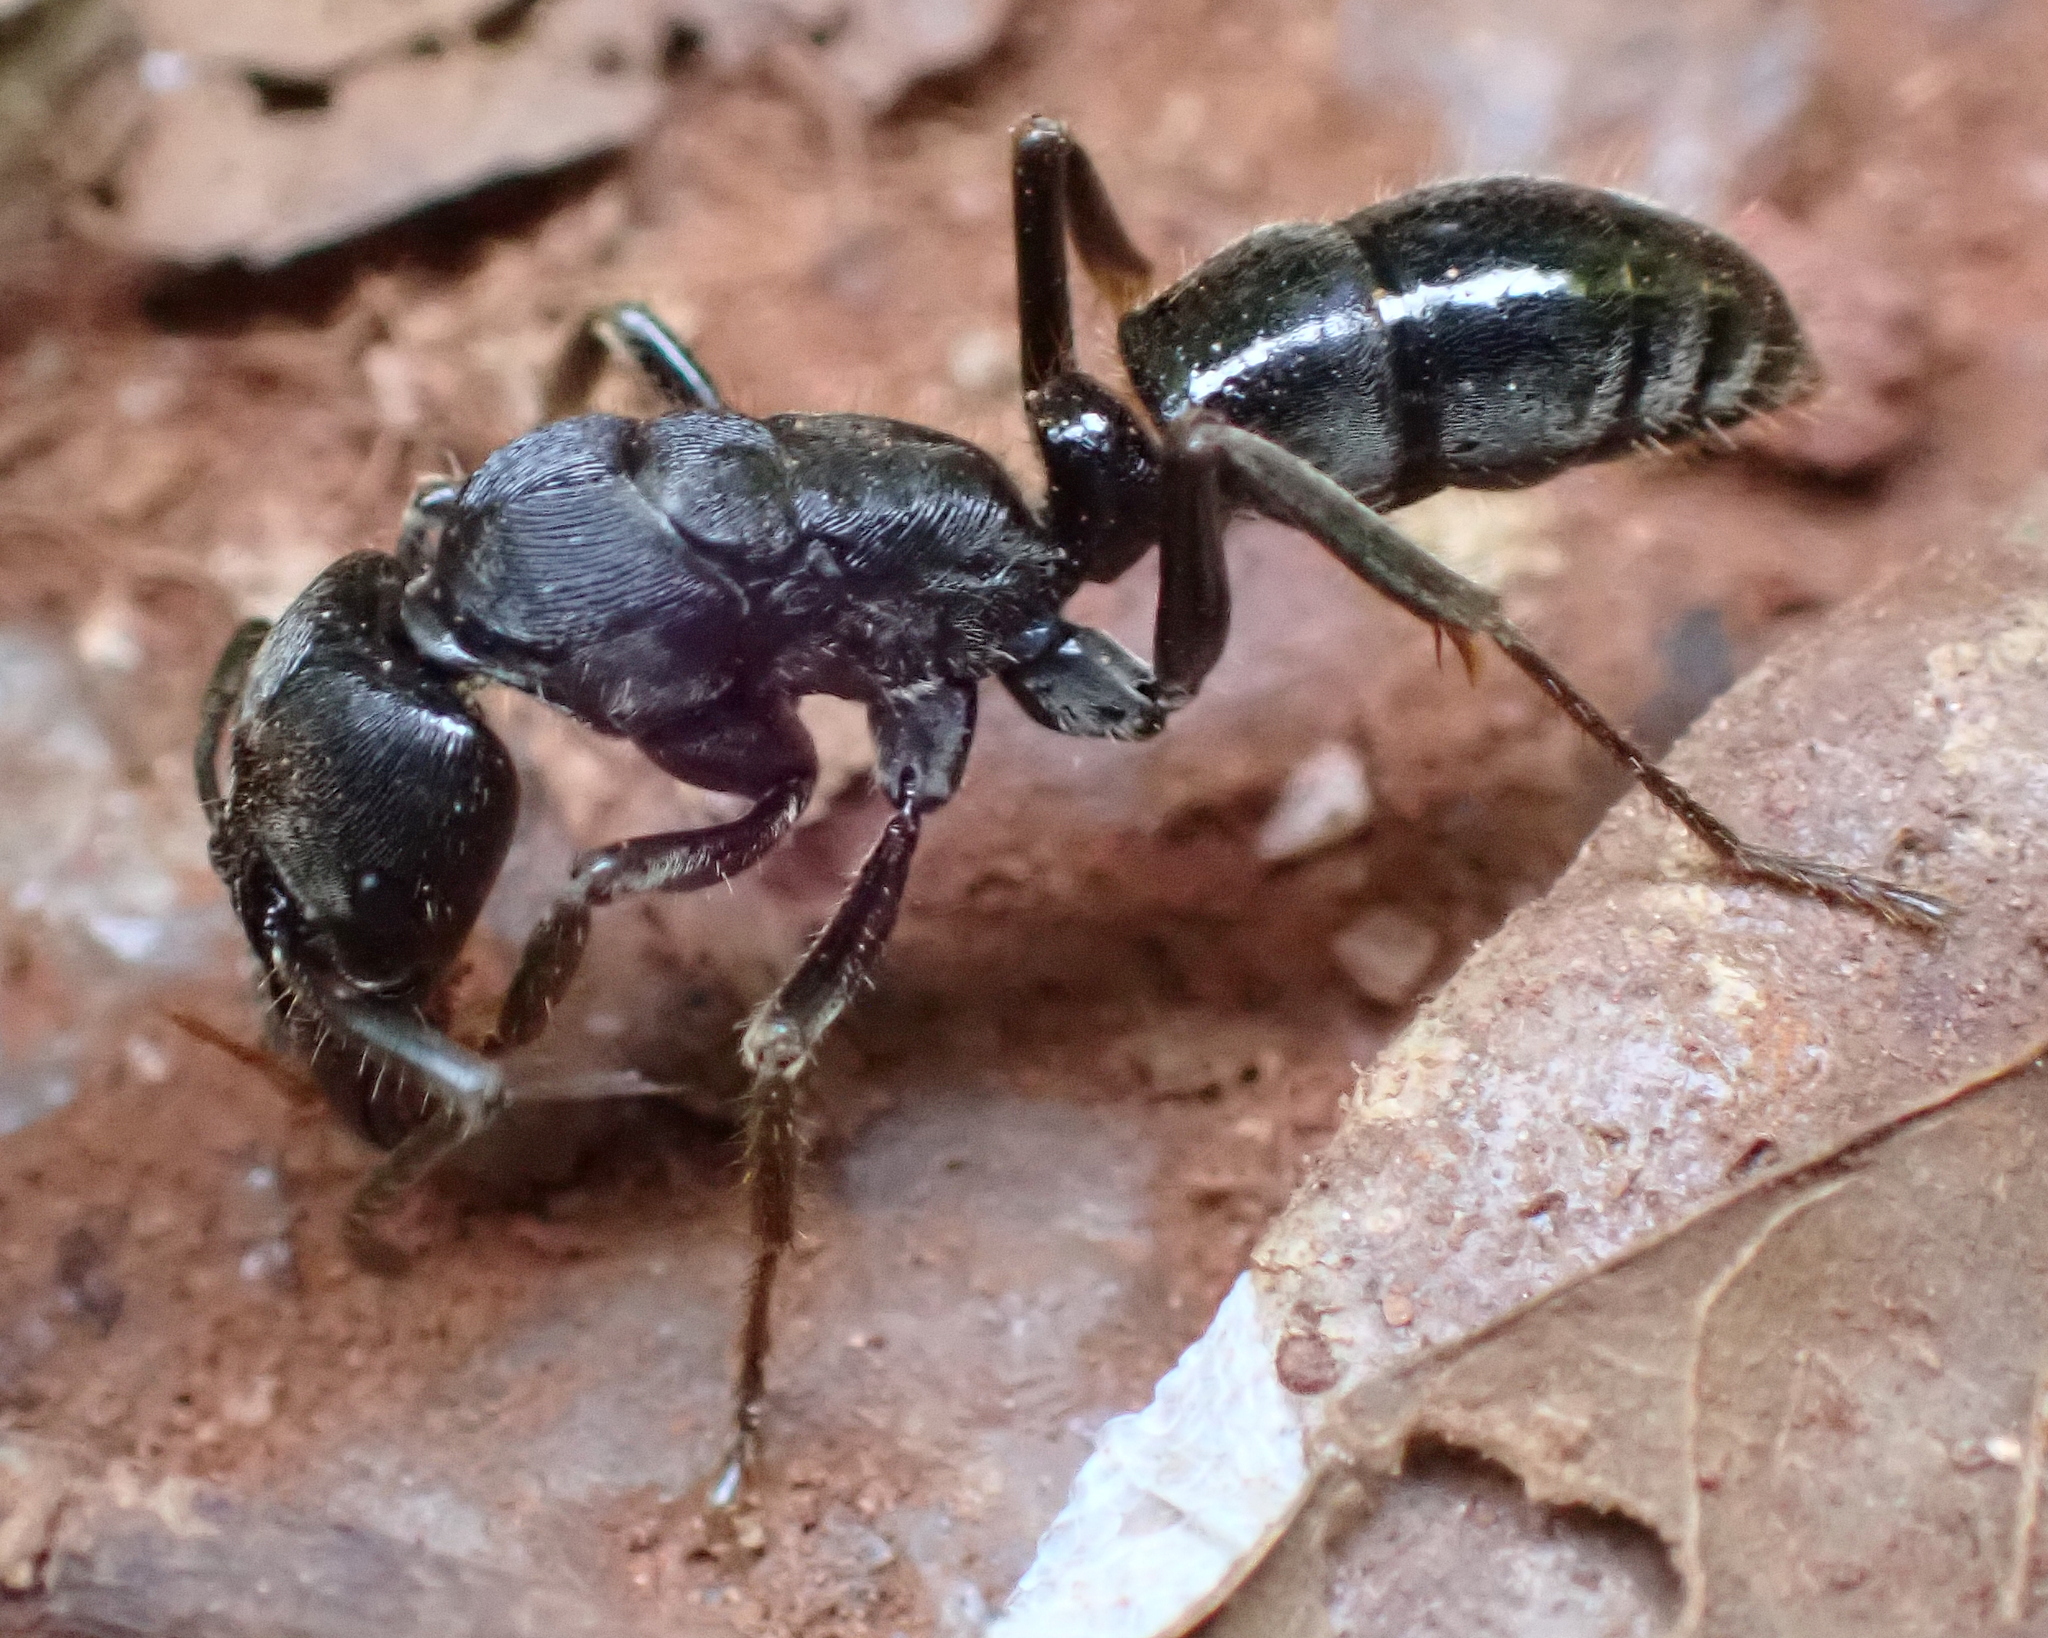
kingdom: Animalia
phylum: Arthropoda
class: Insecta
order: Hymenoptera
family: Formicidae
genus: Paltothyreus
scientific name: Paltothyreus tarsatus
